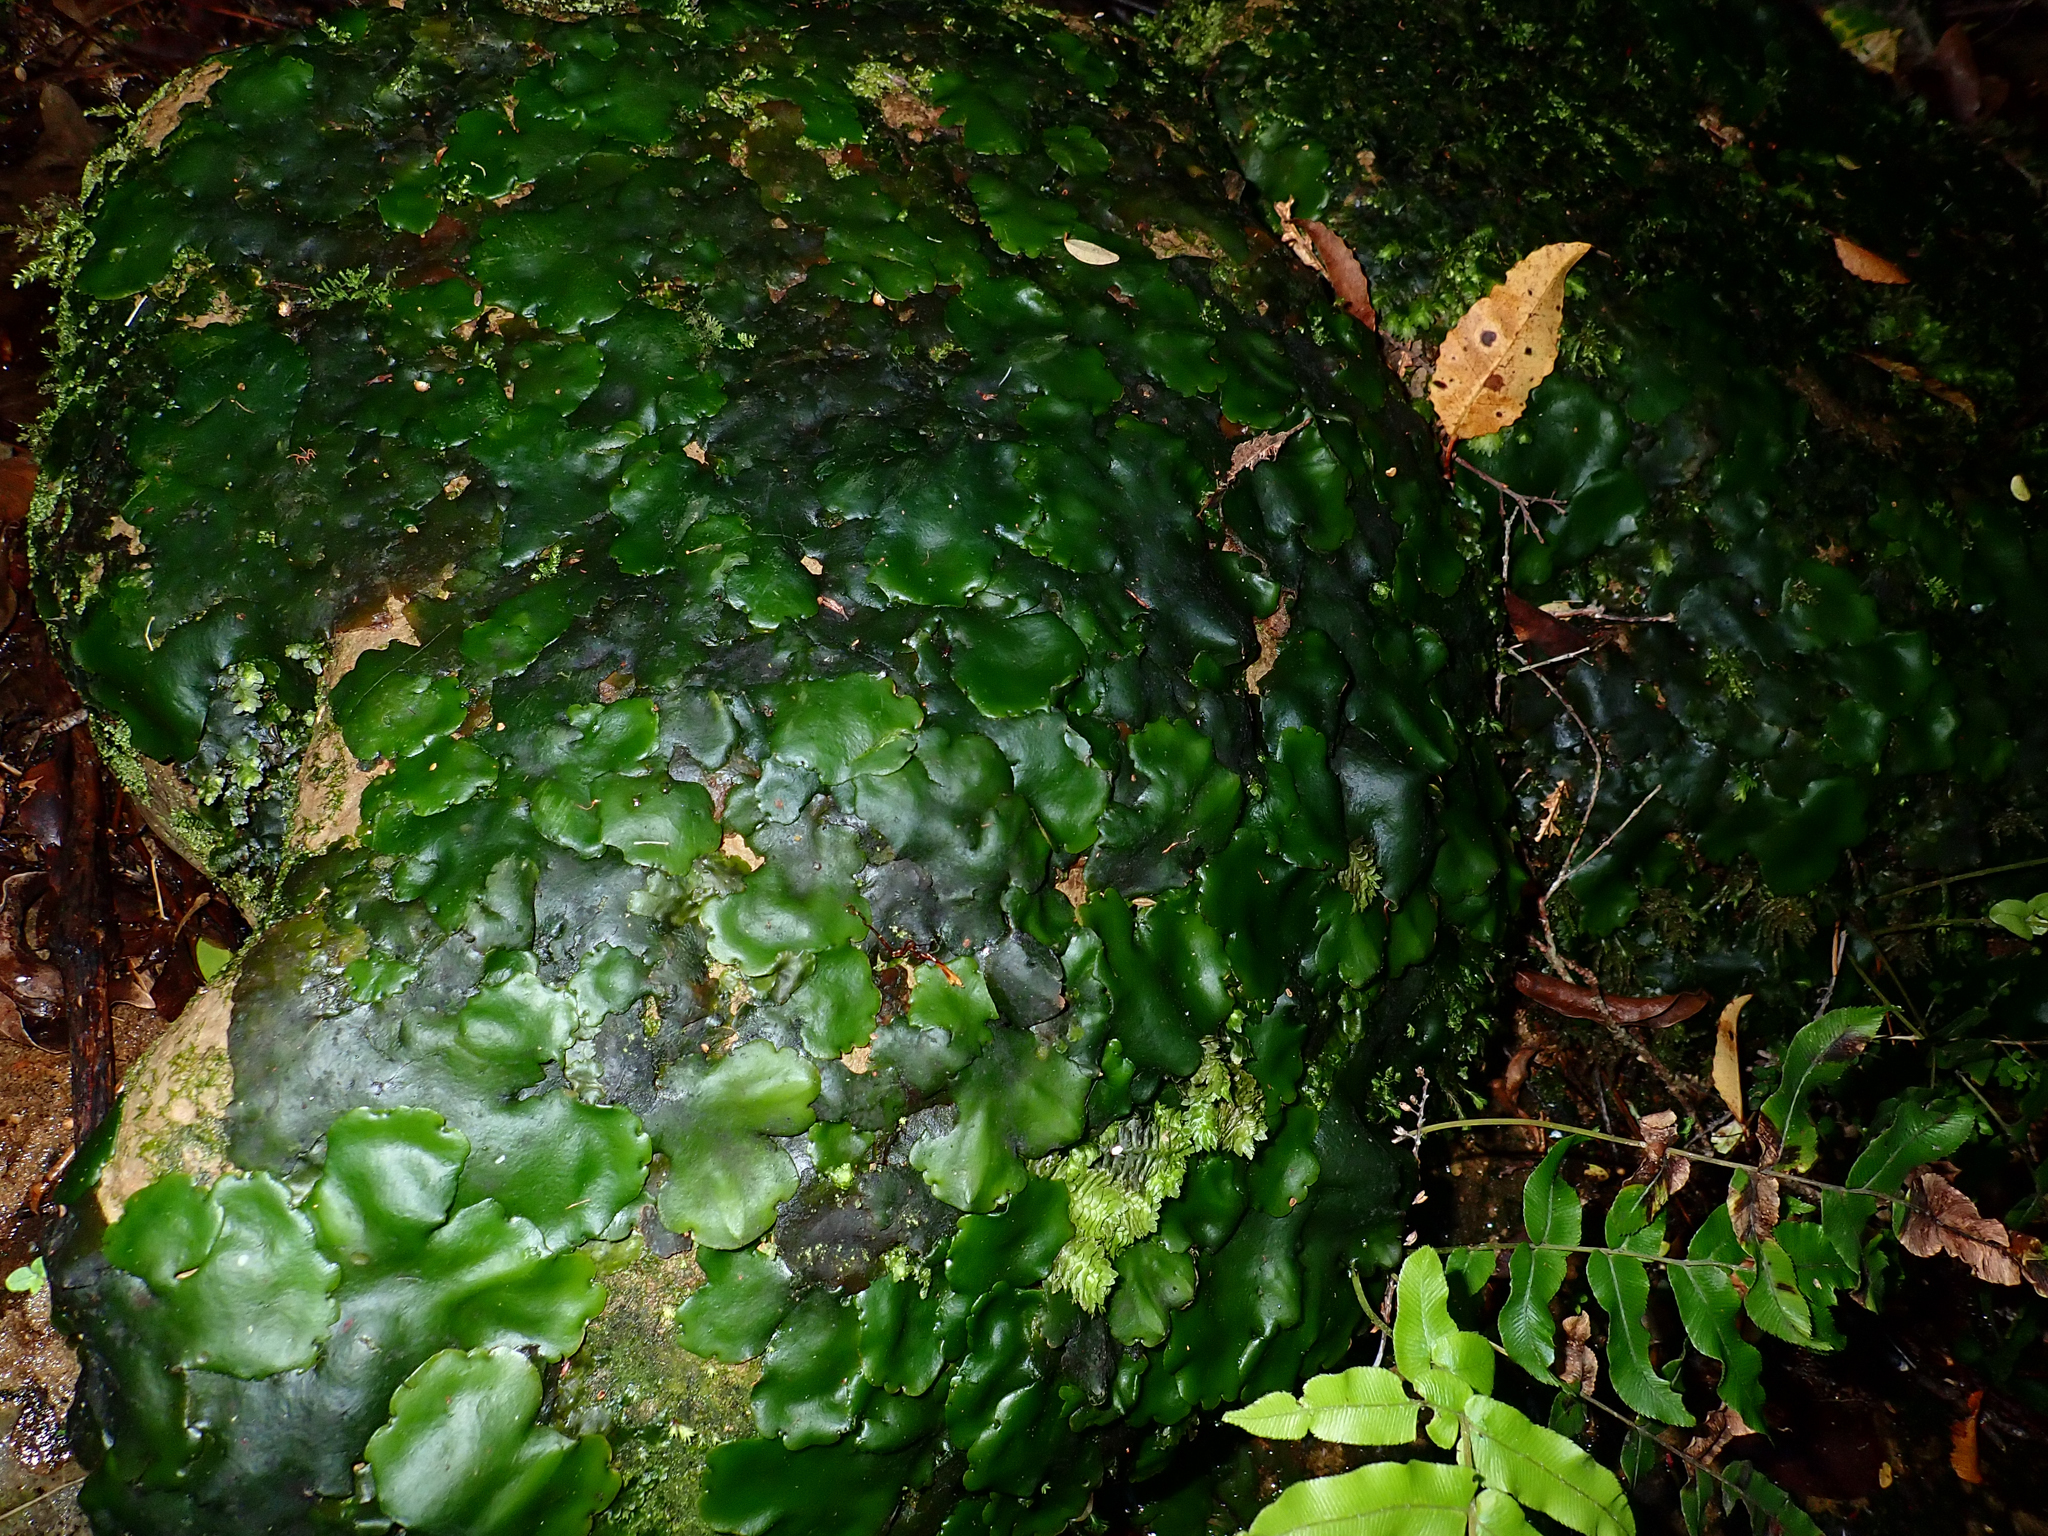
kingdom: Plantae
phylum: Marchantiophyta
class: Marchantiopsida
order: Marchantiales
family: Monocleaceae
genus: Monoclea
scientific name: Monoclea forsteri
